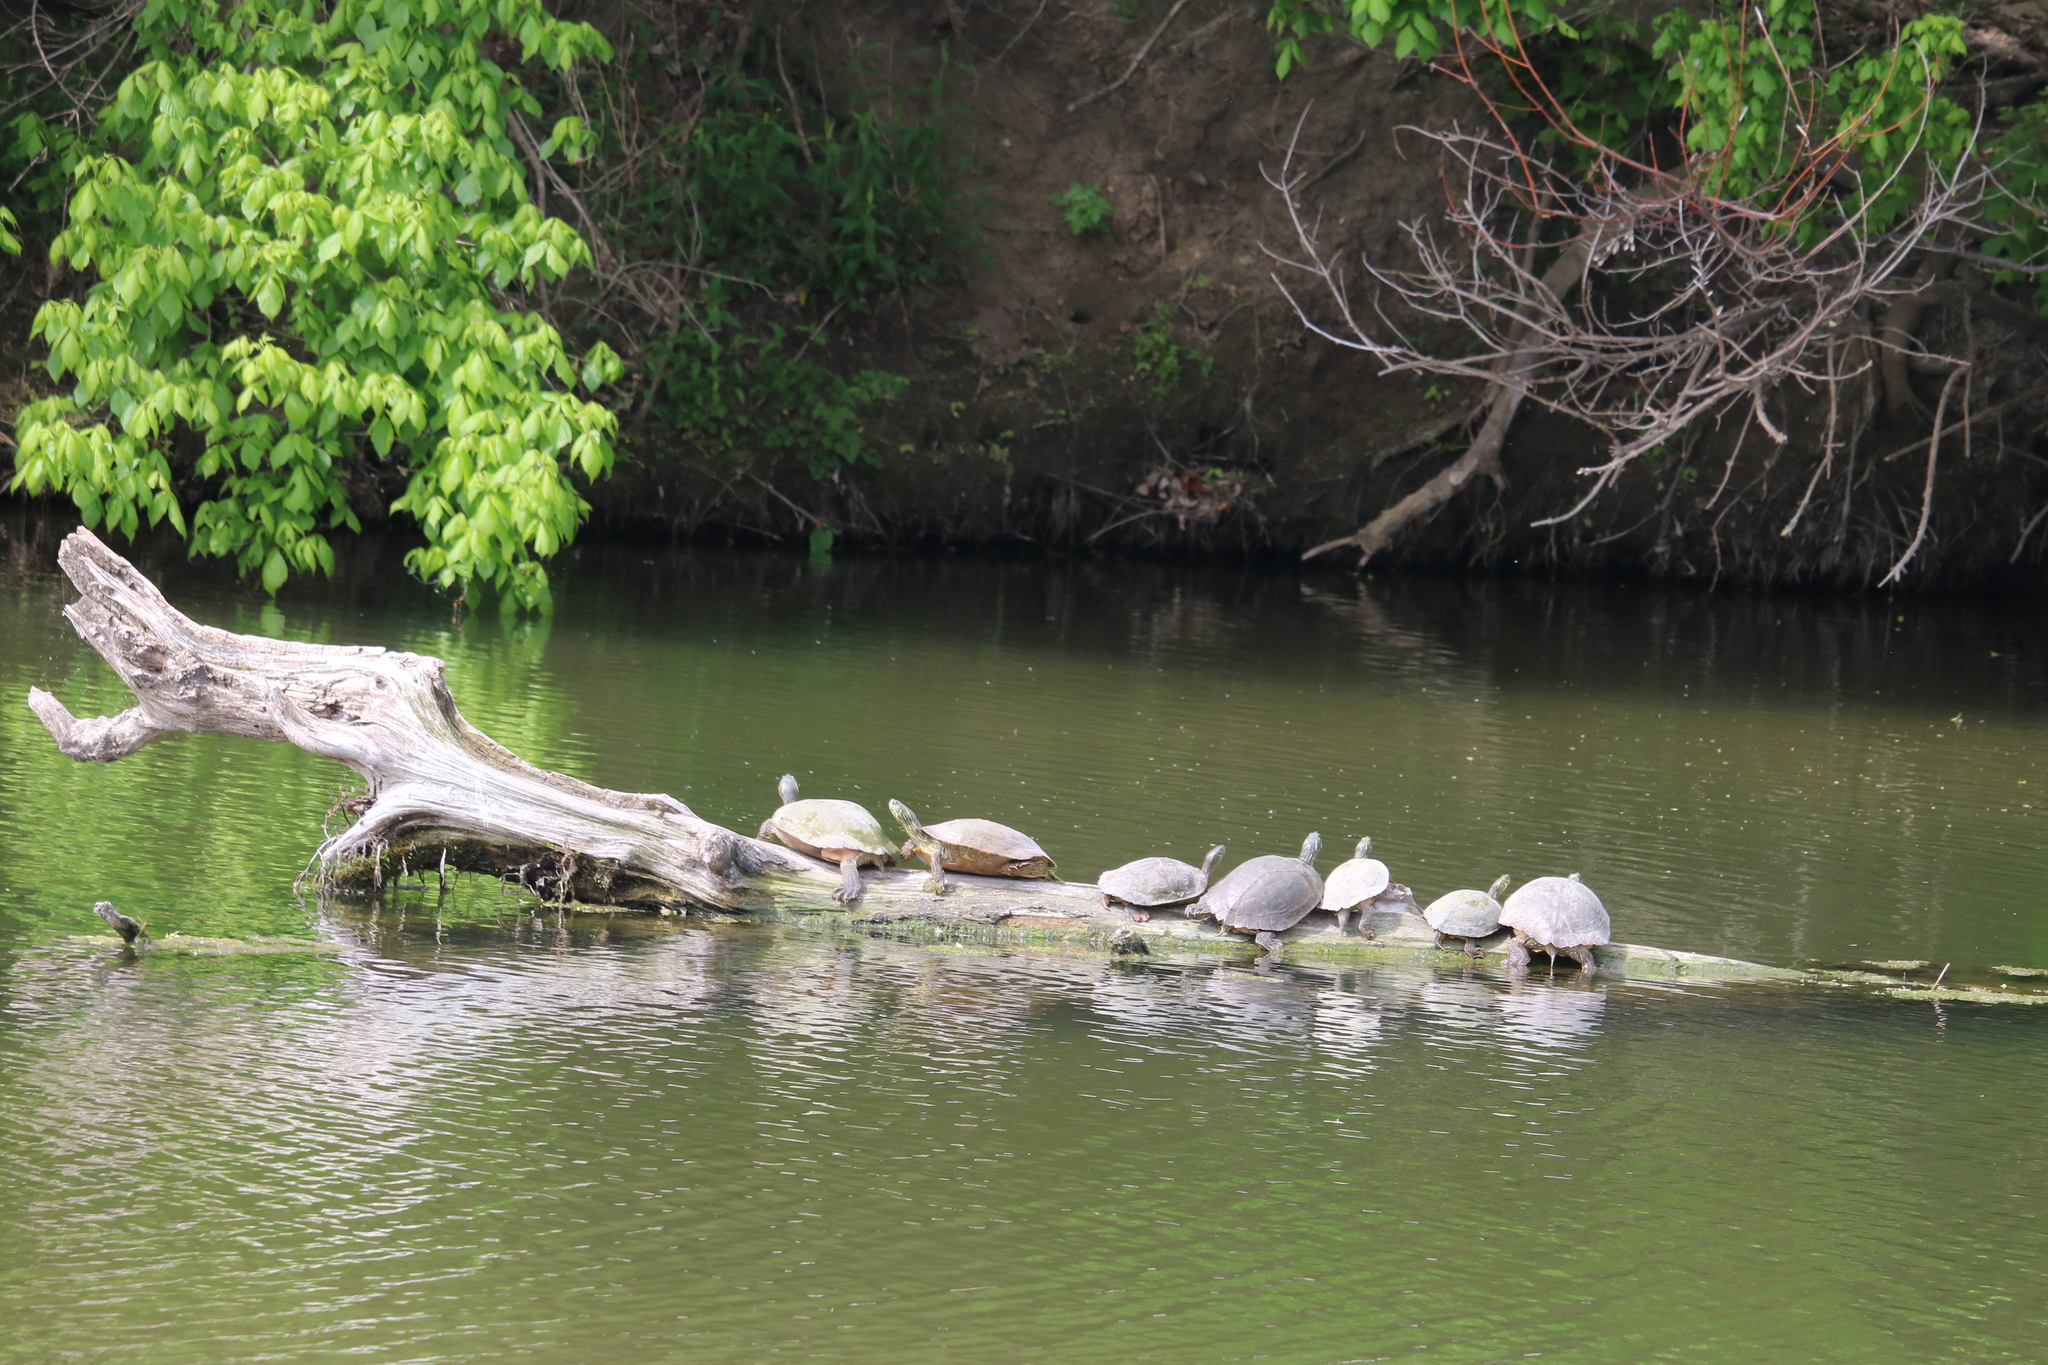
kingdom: Animalia
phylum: Chordata
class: Testudines
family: Emydidae
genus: Pseudemys
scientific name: Pseudemys texana
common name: Texas river cooter
